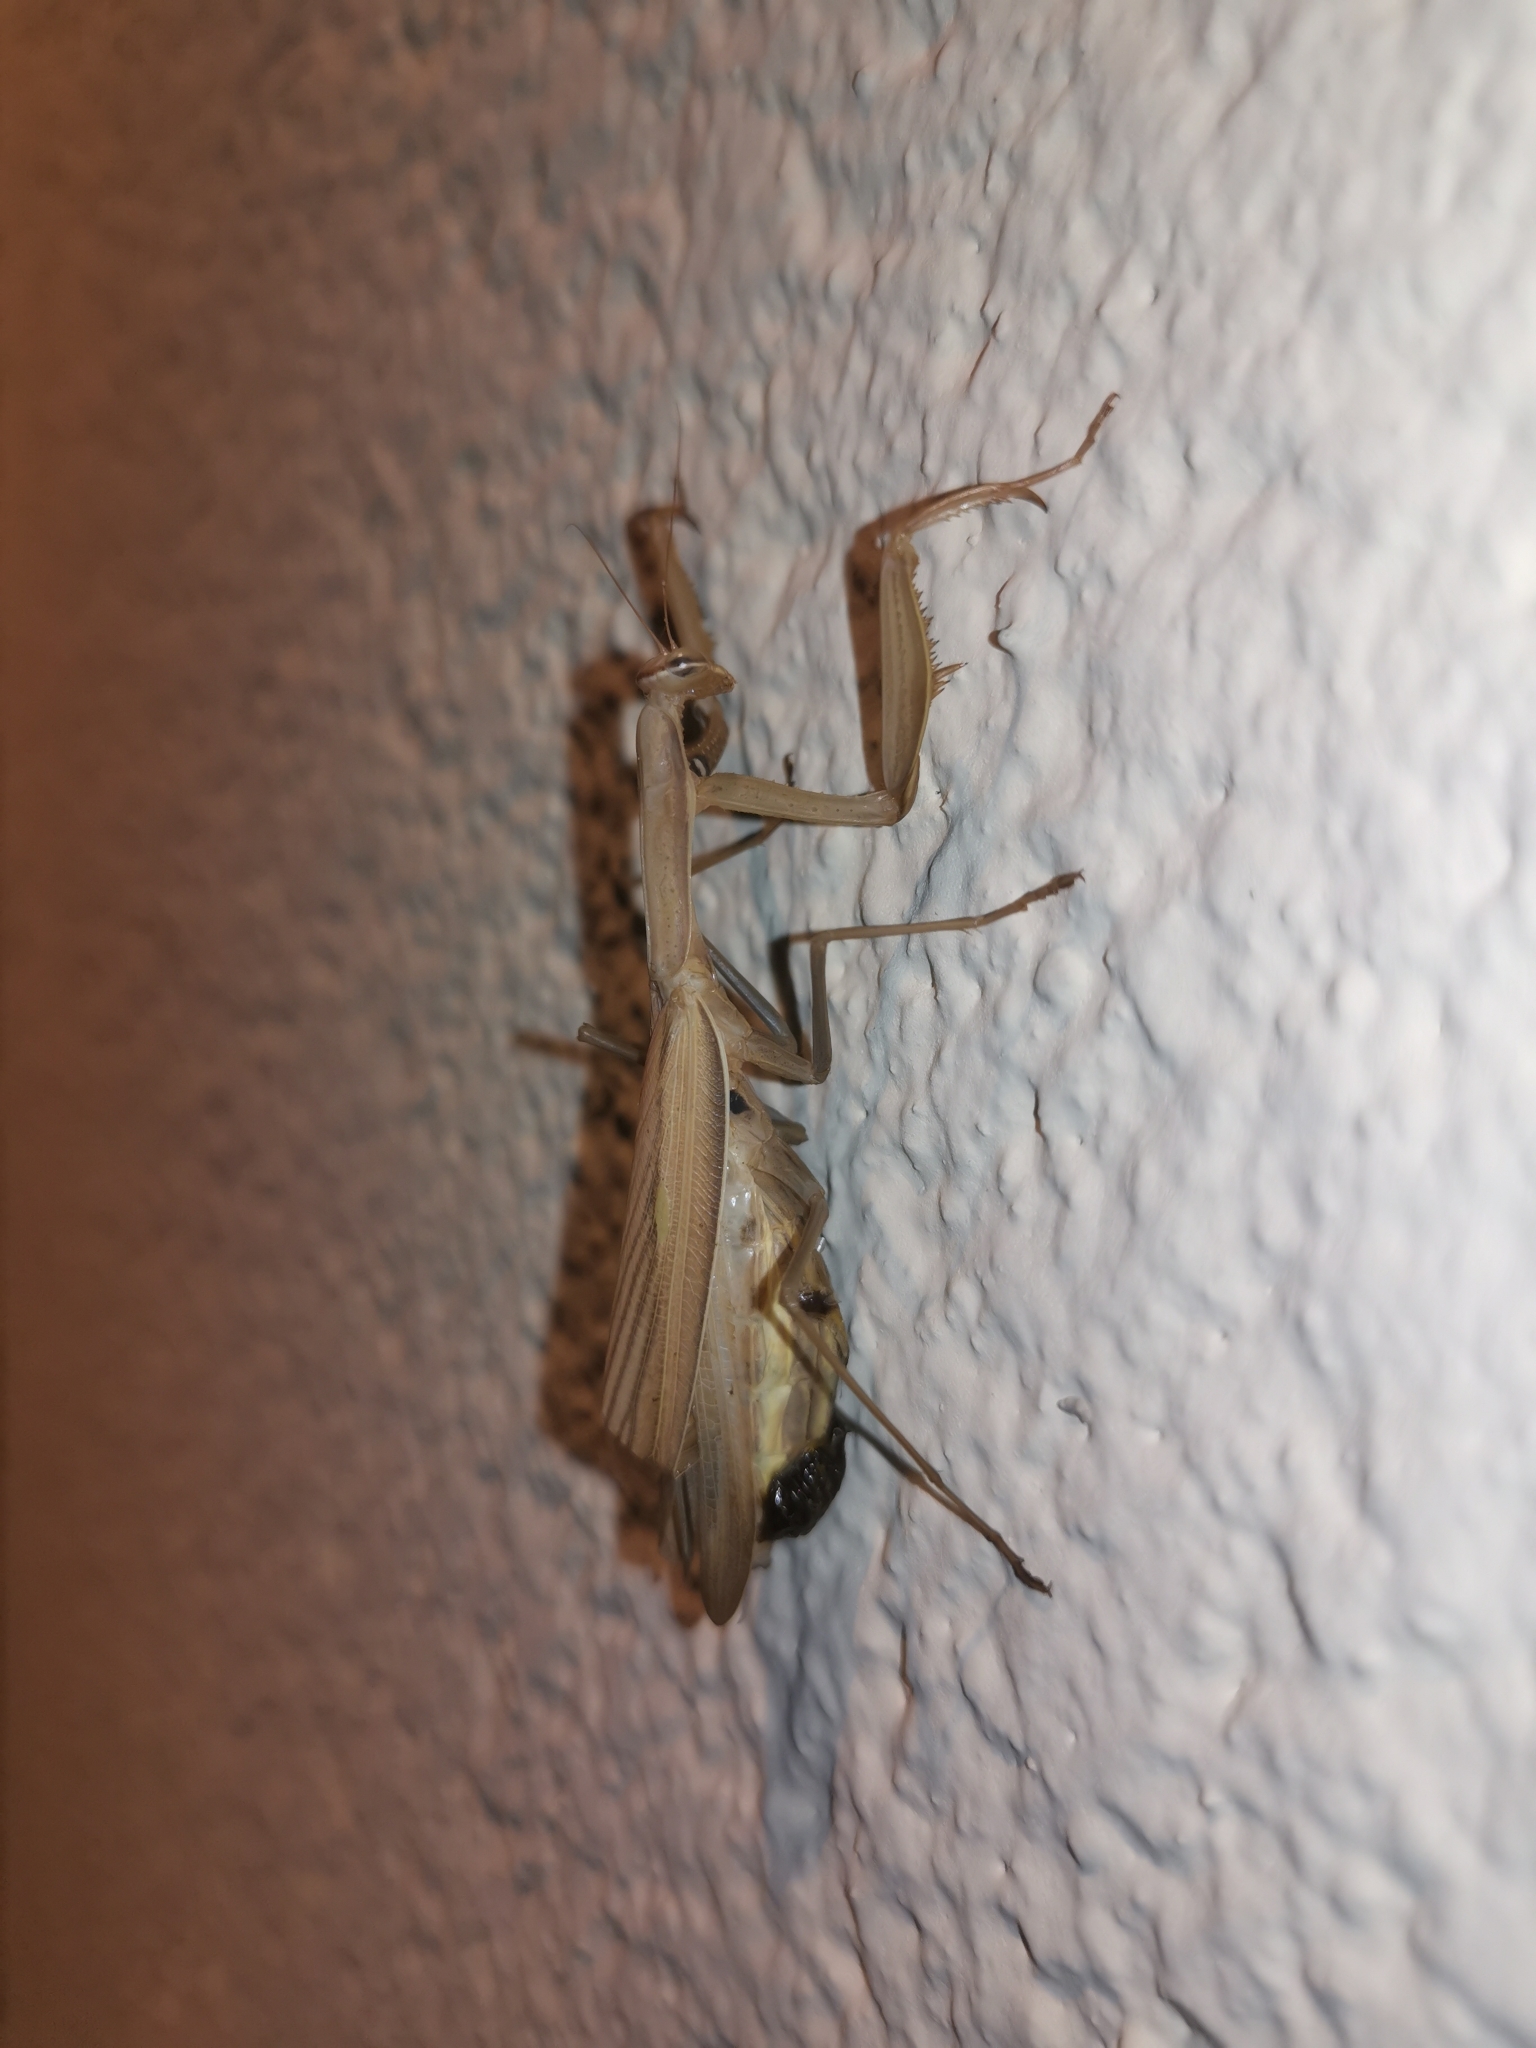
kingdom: Animalia
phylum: Arthropoda
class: Insecta
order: Mantodea
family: Mantidae
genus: Mantis
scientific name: Mantis religiosa
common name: Praying mantis
